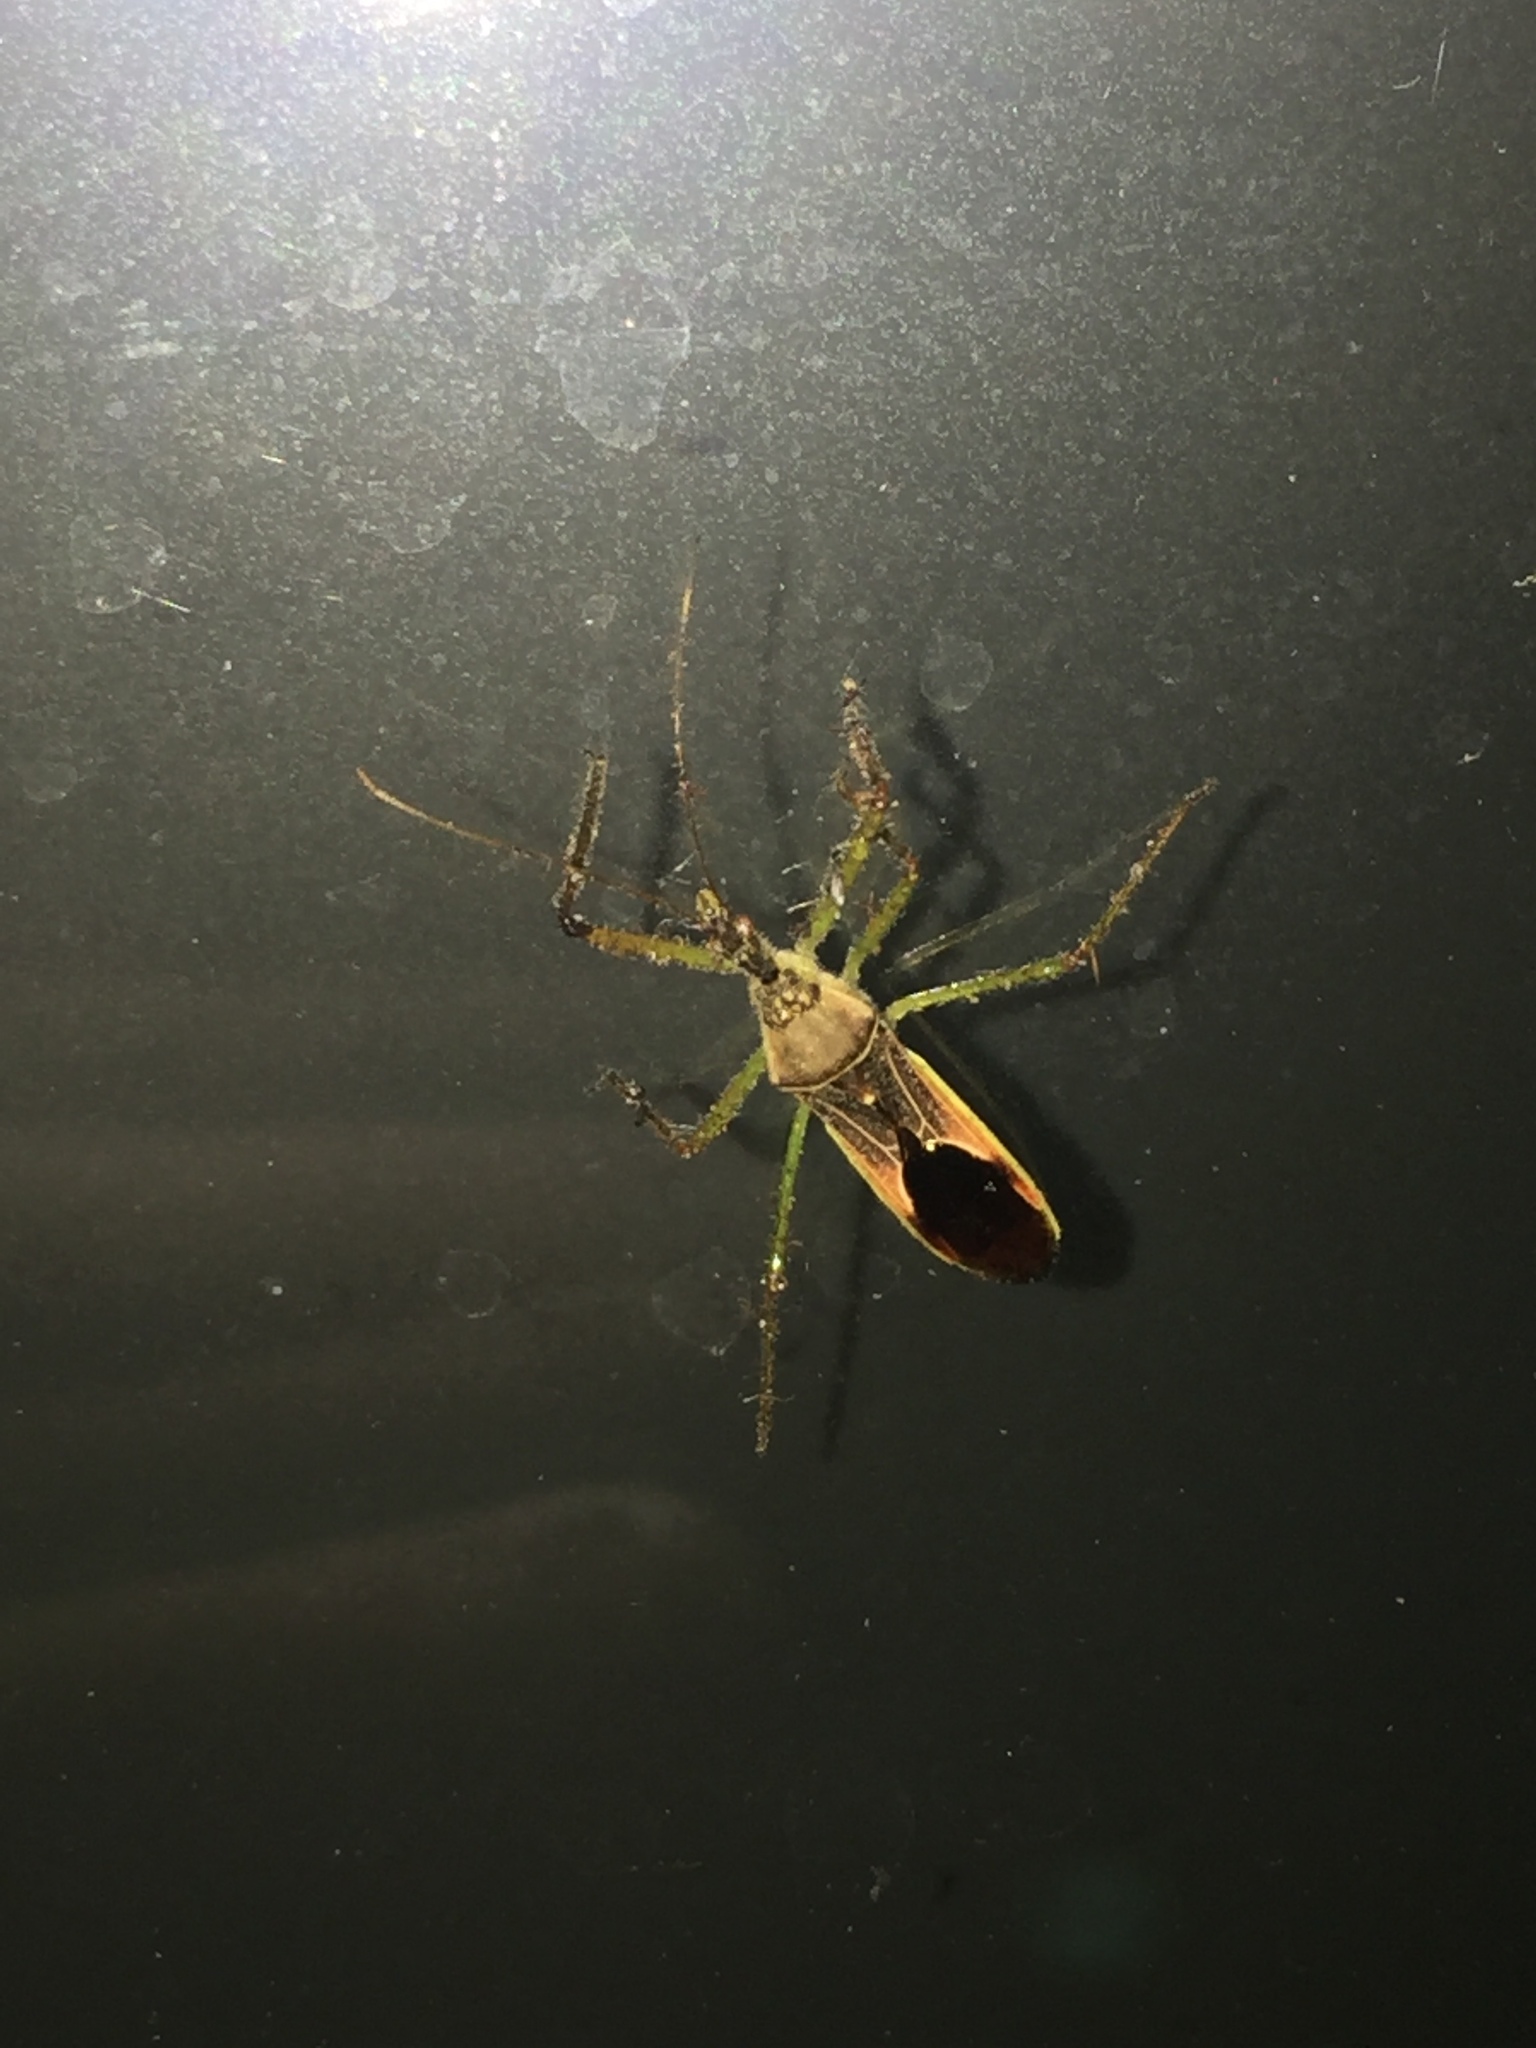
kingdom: Animalia
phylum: Arthropoda
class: Insecta
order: Hemiptera
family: Reduviidae
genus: Zelus
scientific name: Zelus renardii
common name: Assassin bug
